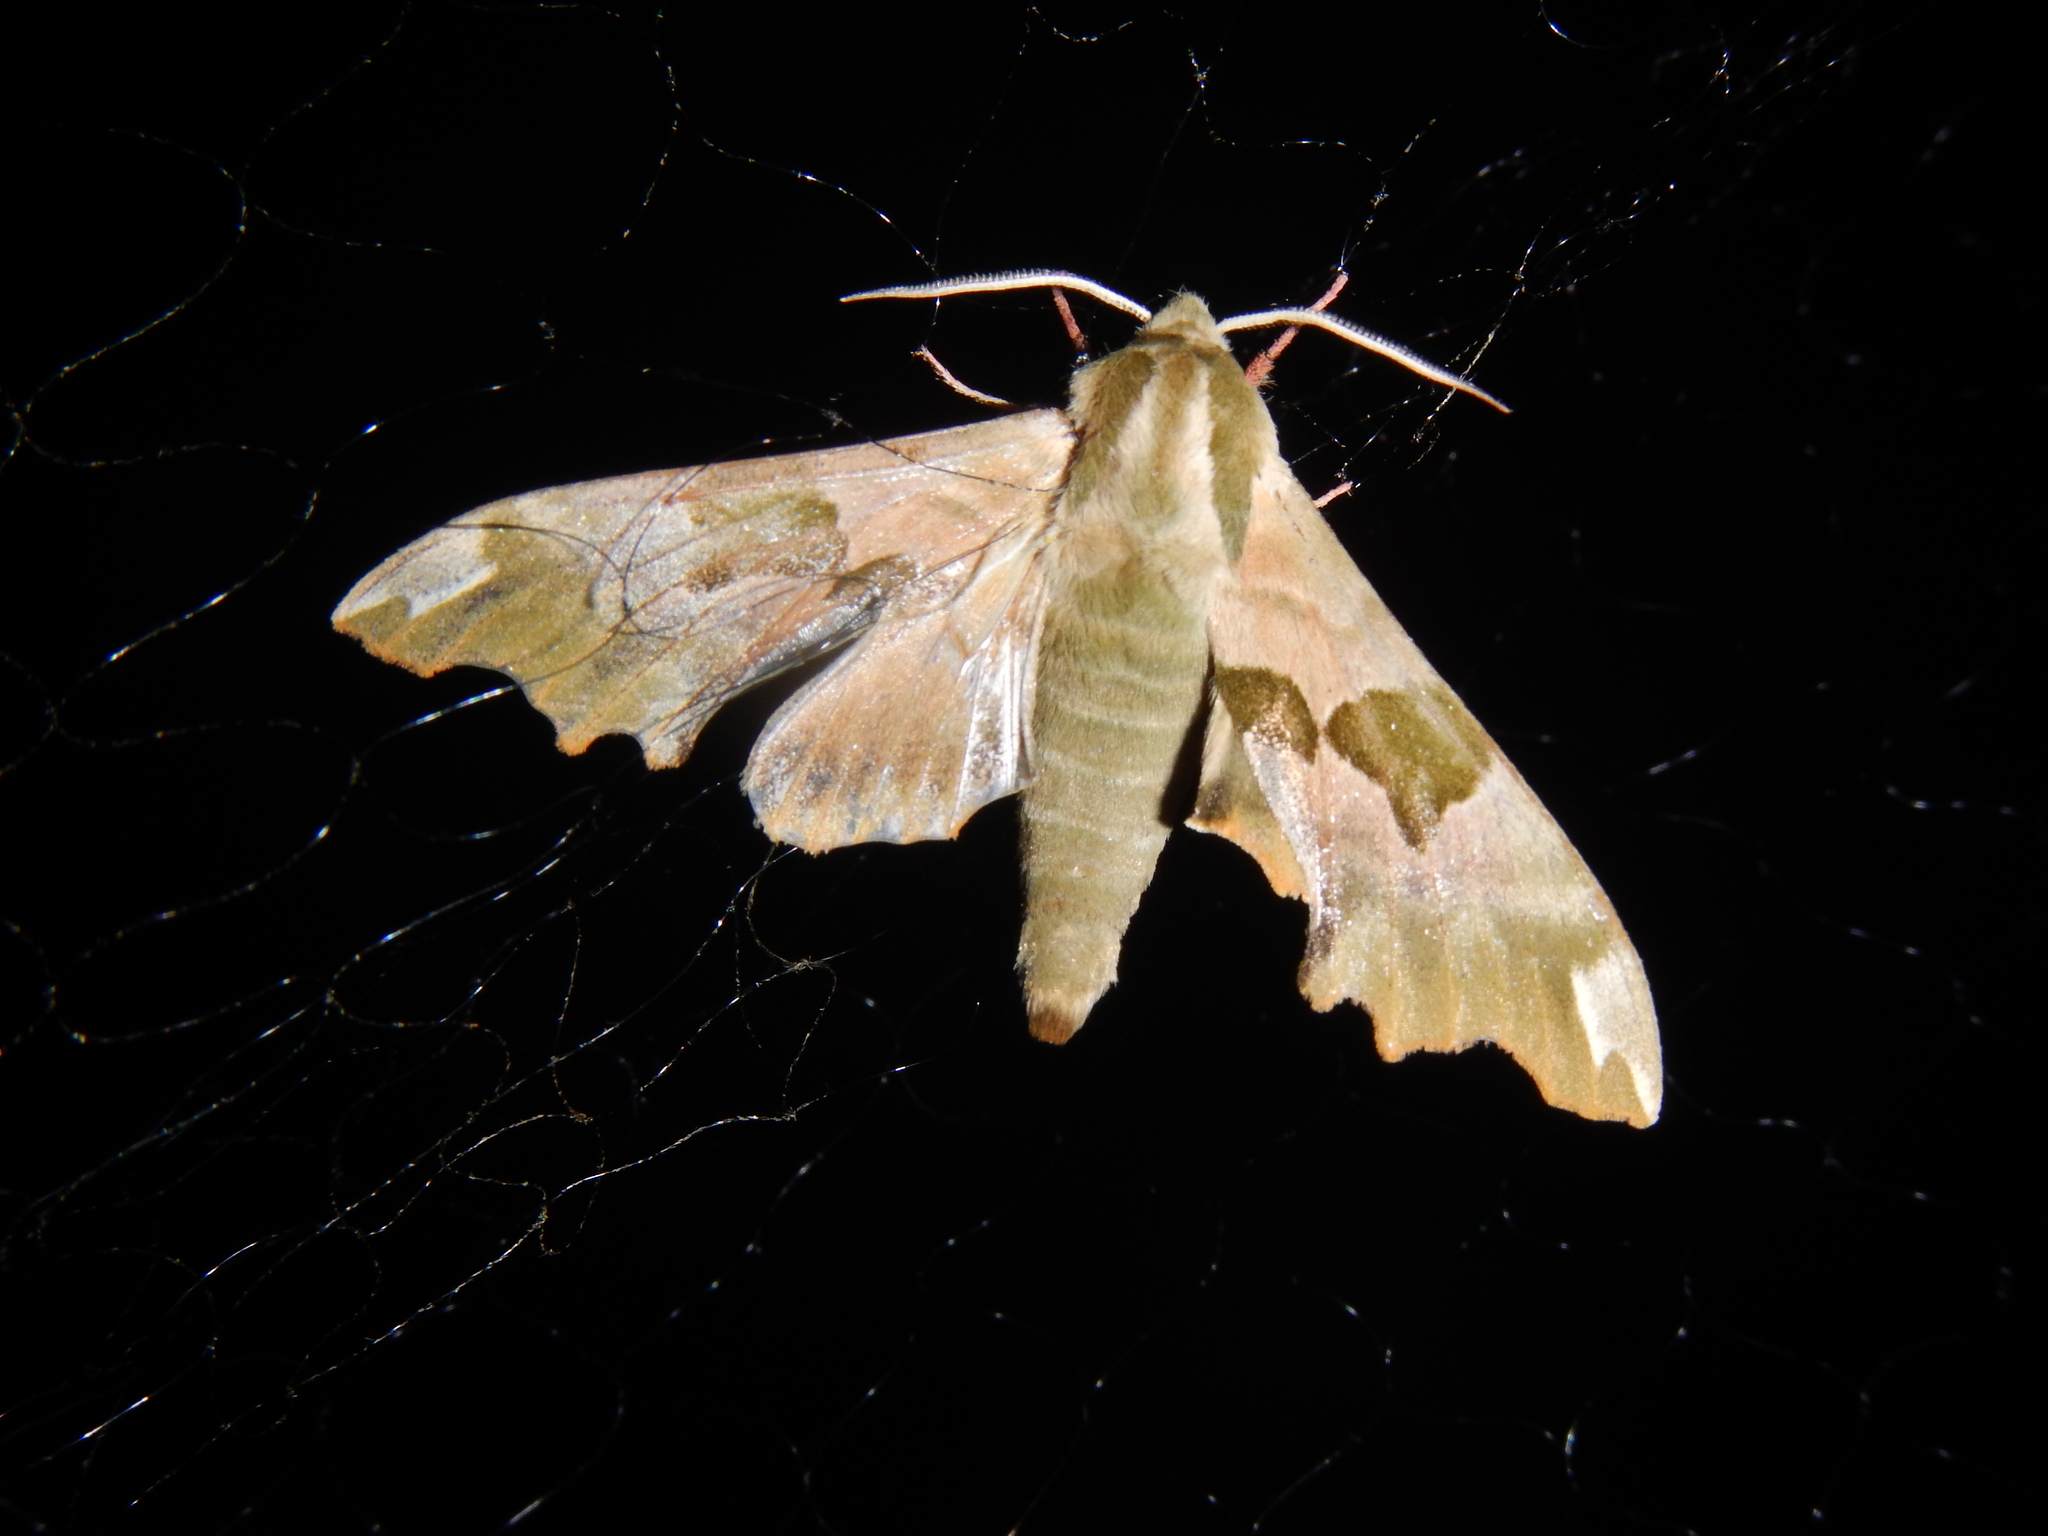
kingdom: Animalia
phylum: Arthropoda
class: Insecta
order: Lepidoptera
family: Sphingidae
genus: Mimas
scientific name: Mimas tiliae
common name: Lime hawk-moth
